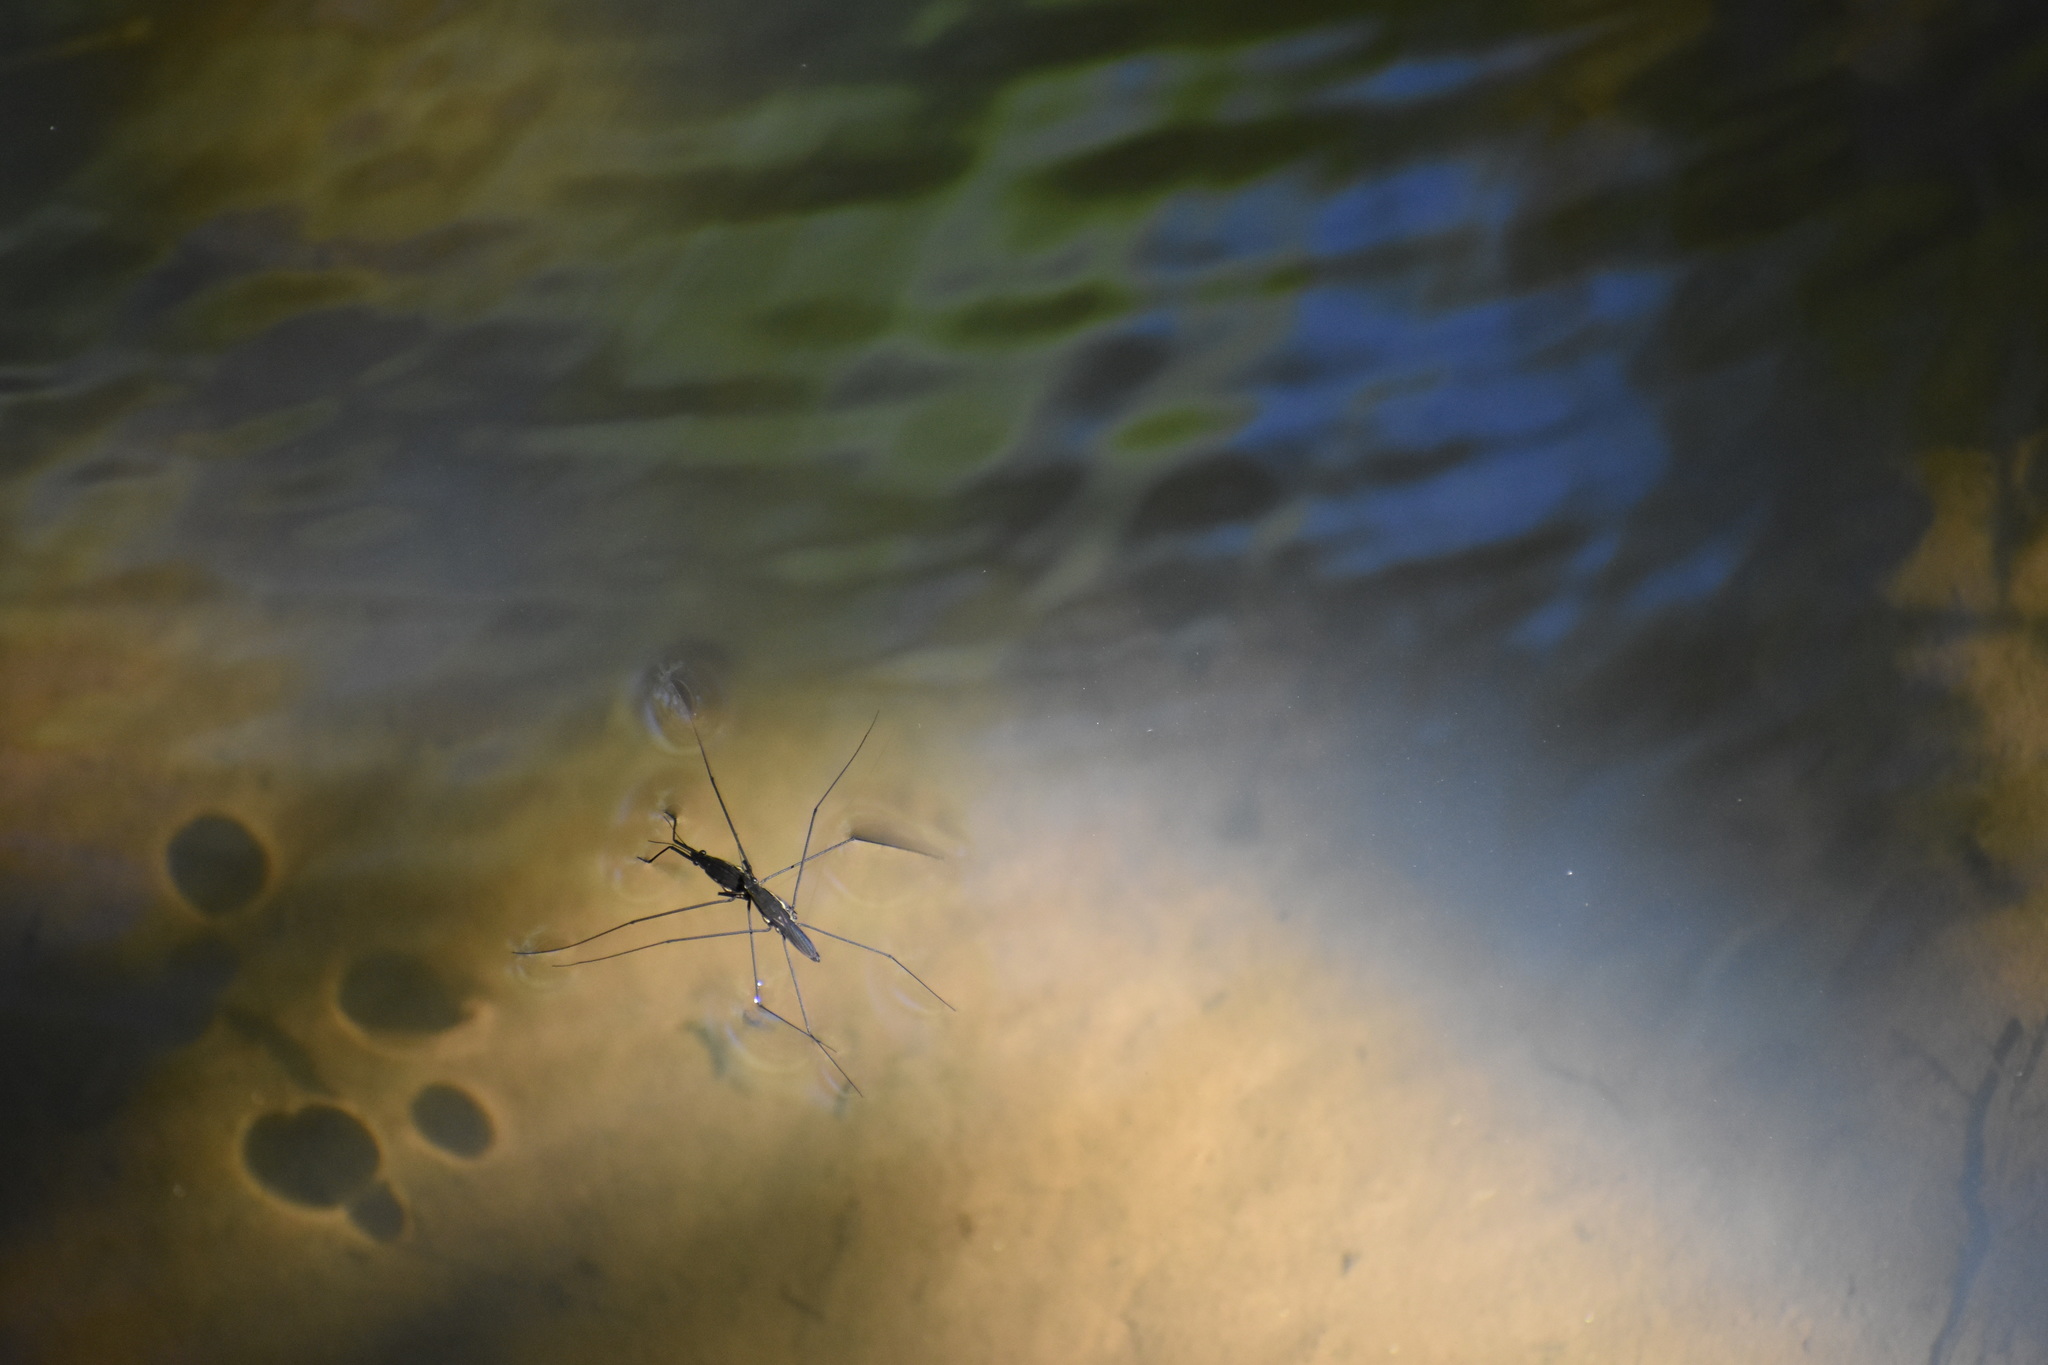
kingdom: Animalia
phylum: Arthropoda
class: Insecta
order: Hemiptera
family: Gerridae
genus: Aquarius
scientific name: Aquarius conformis
